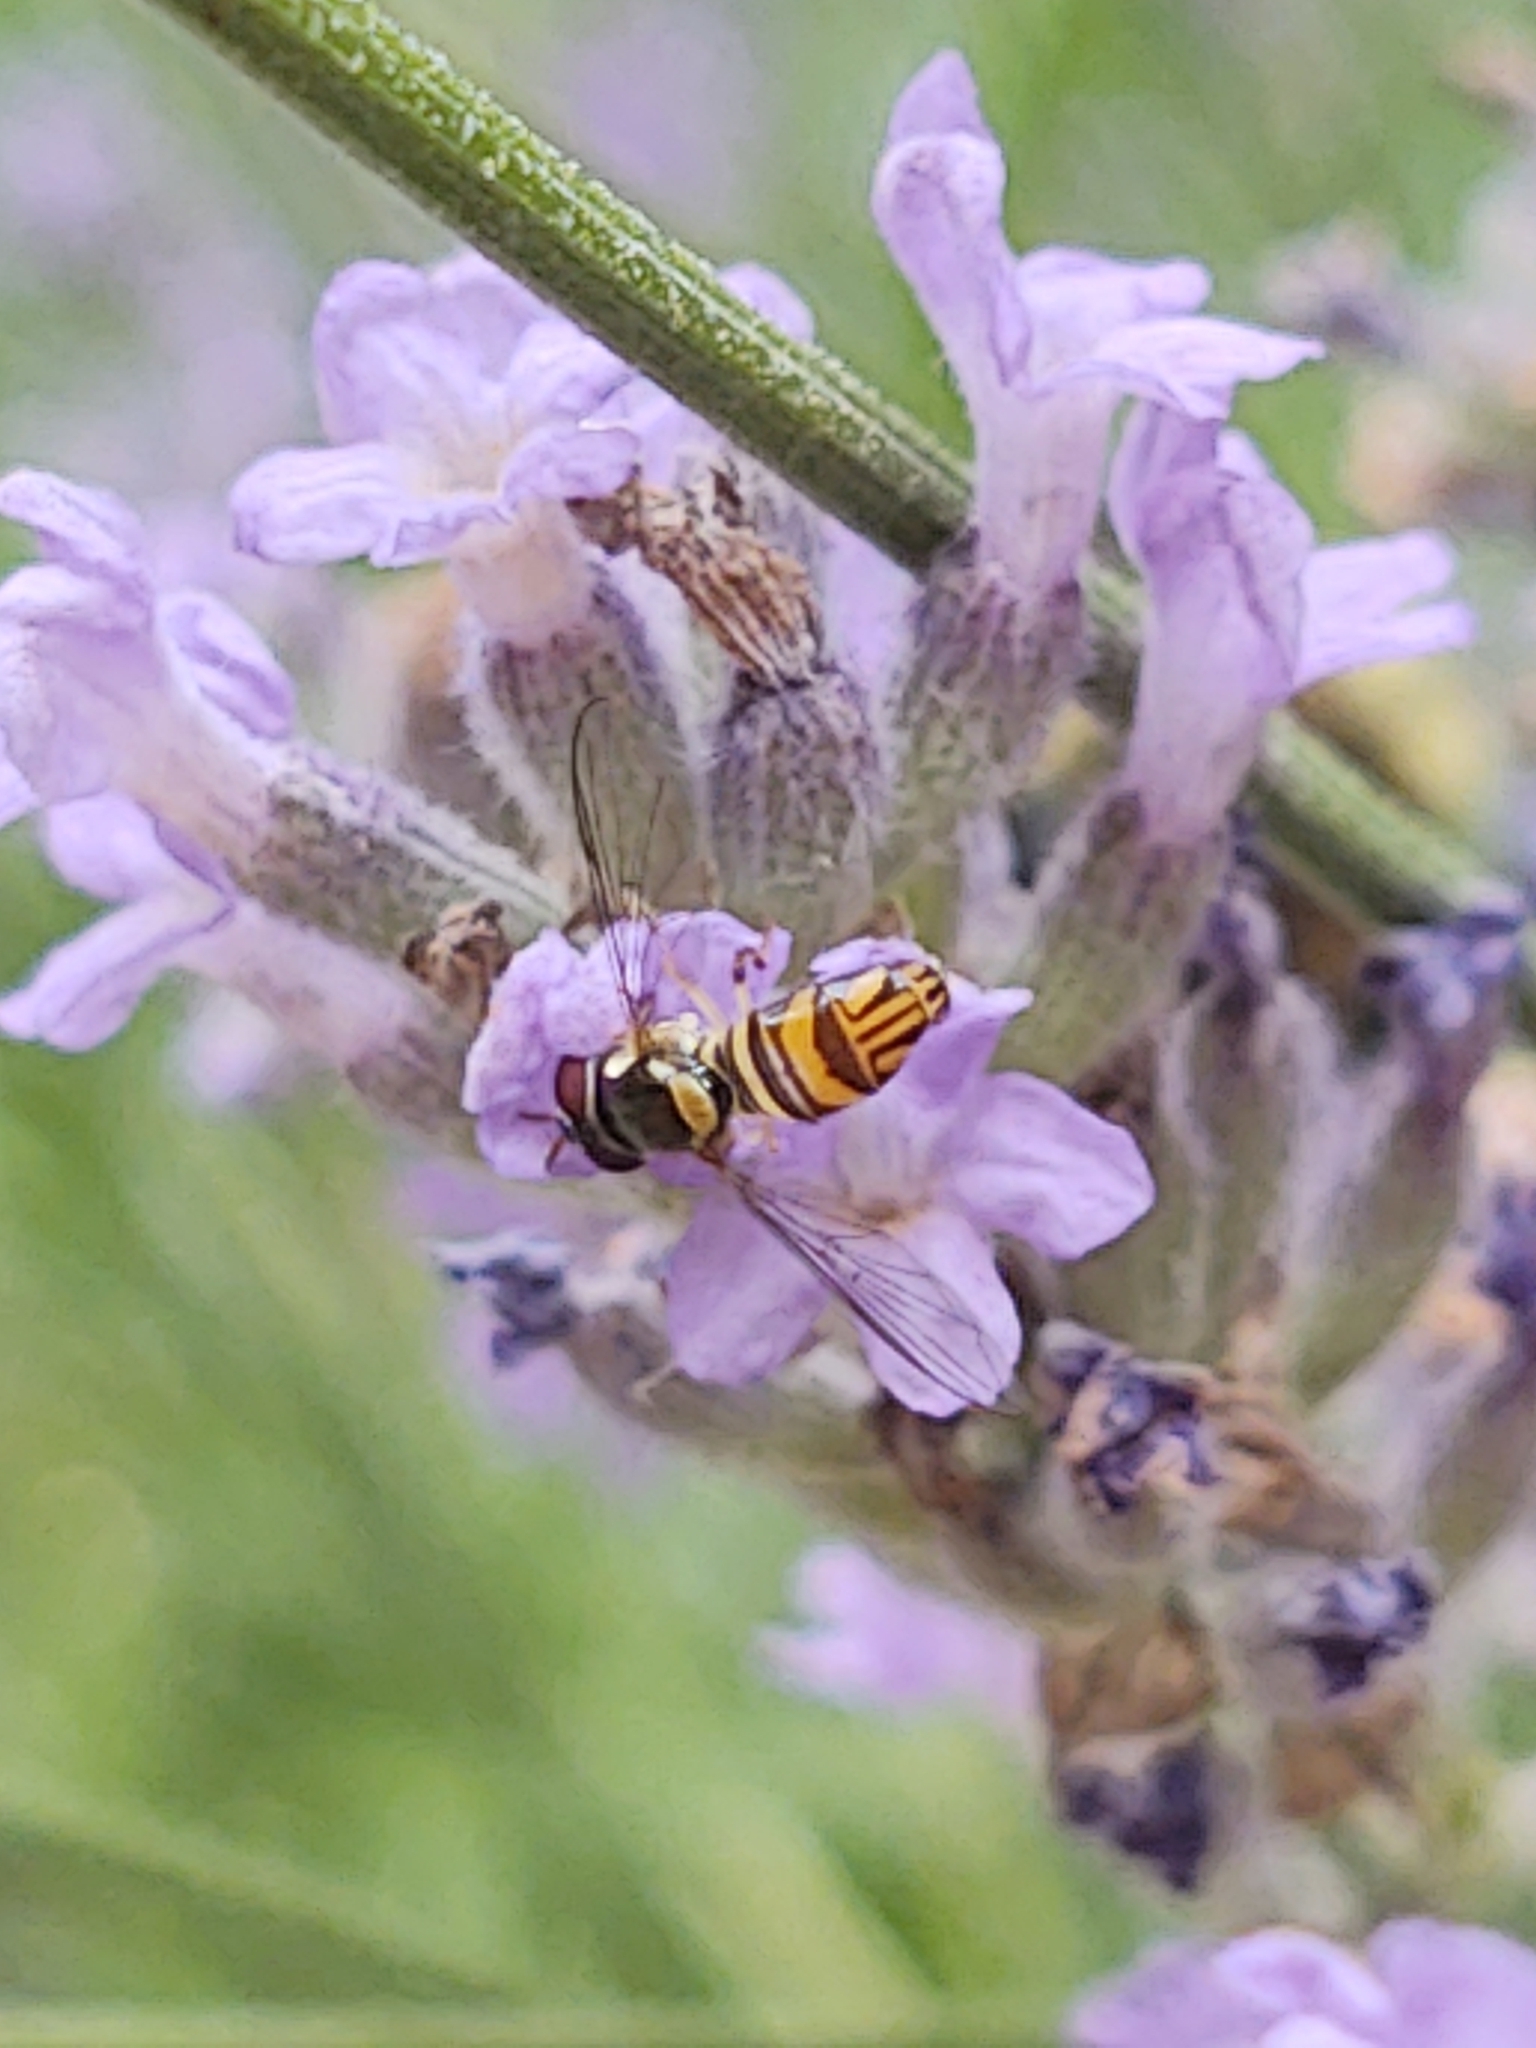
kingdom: Animalia
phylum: Arthropoda
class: Insecta
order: Diptera
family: Syrphidae
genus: Allograpta
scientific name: Allograpta obliqua
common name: Common oblique syrphid
